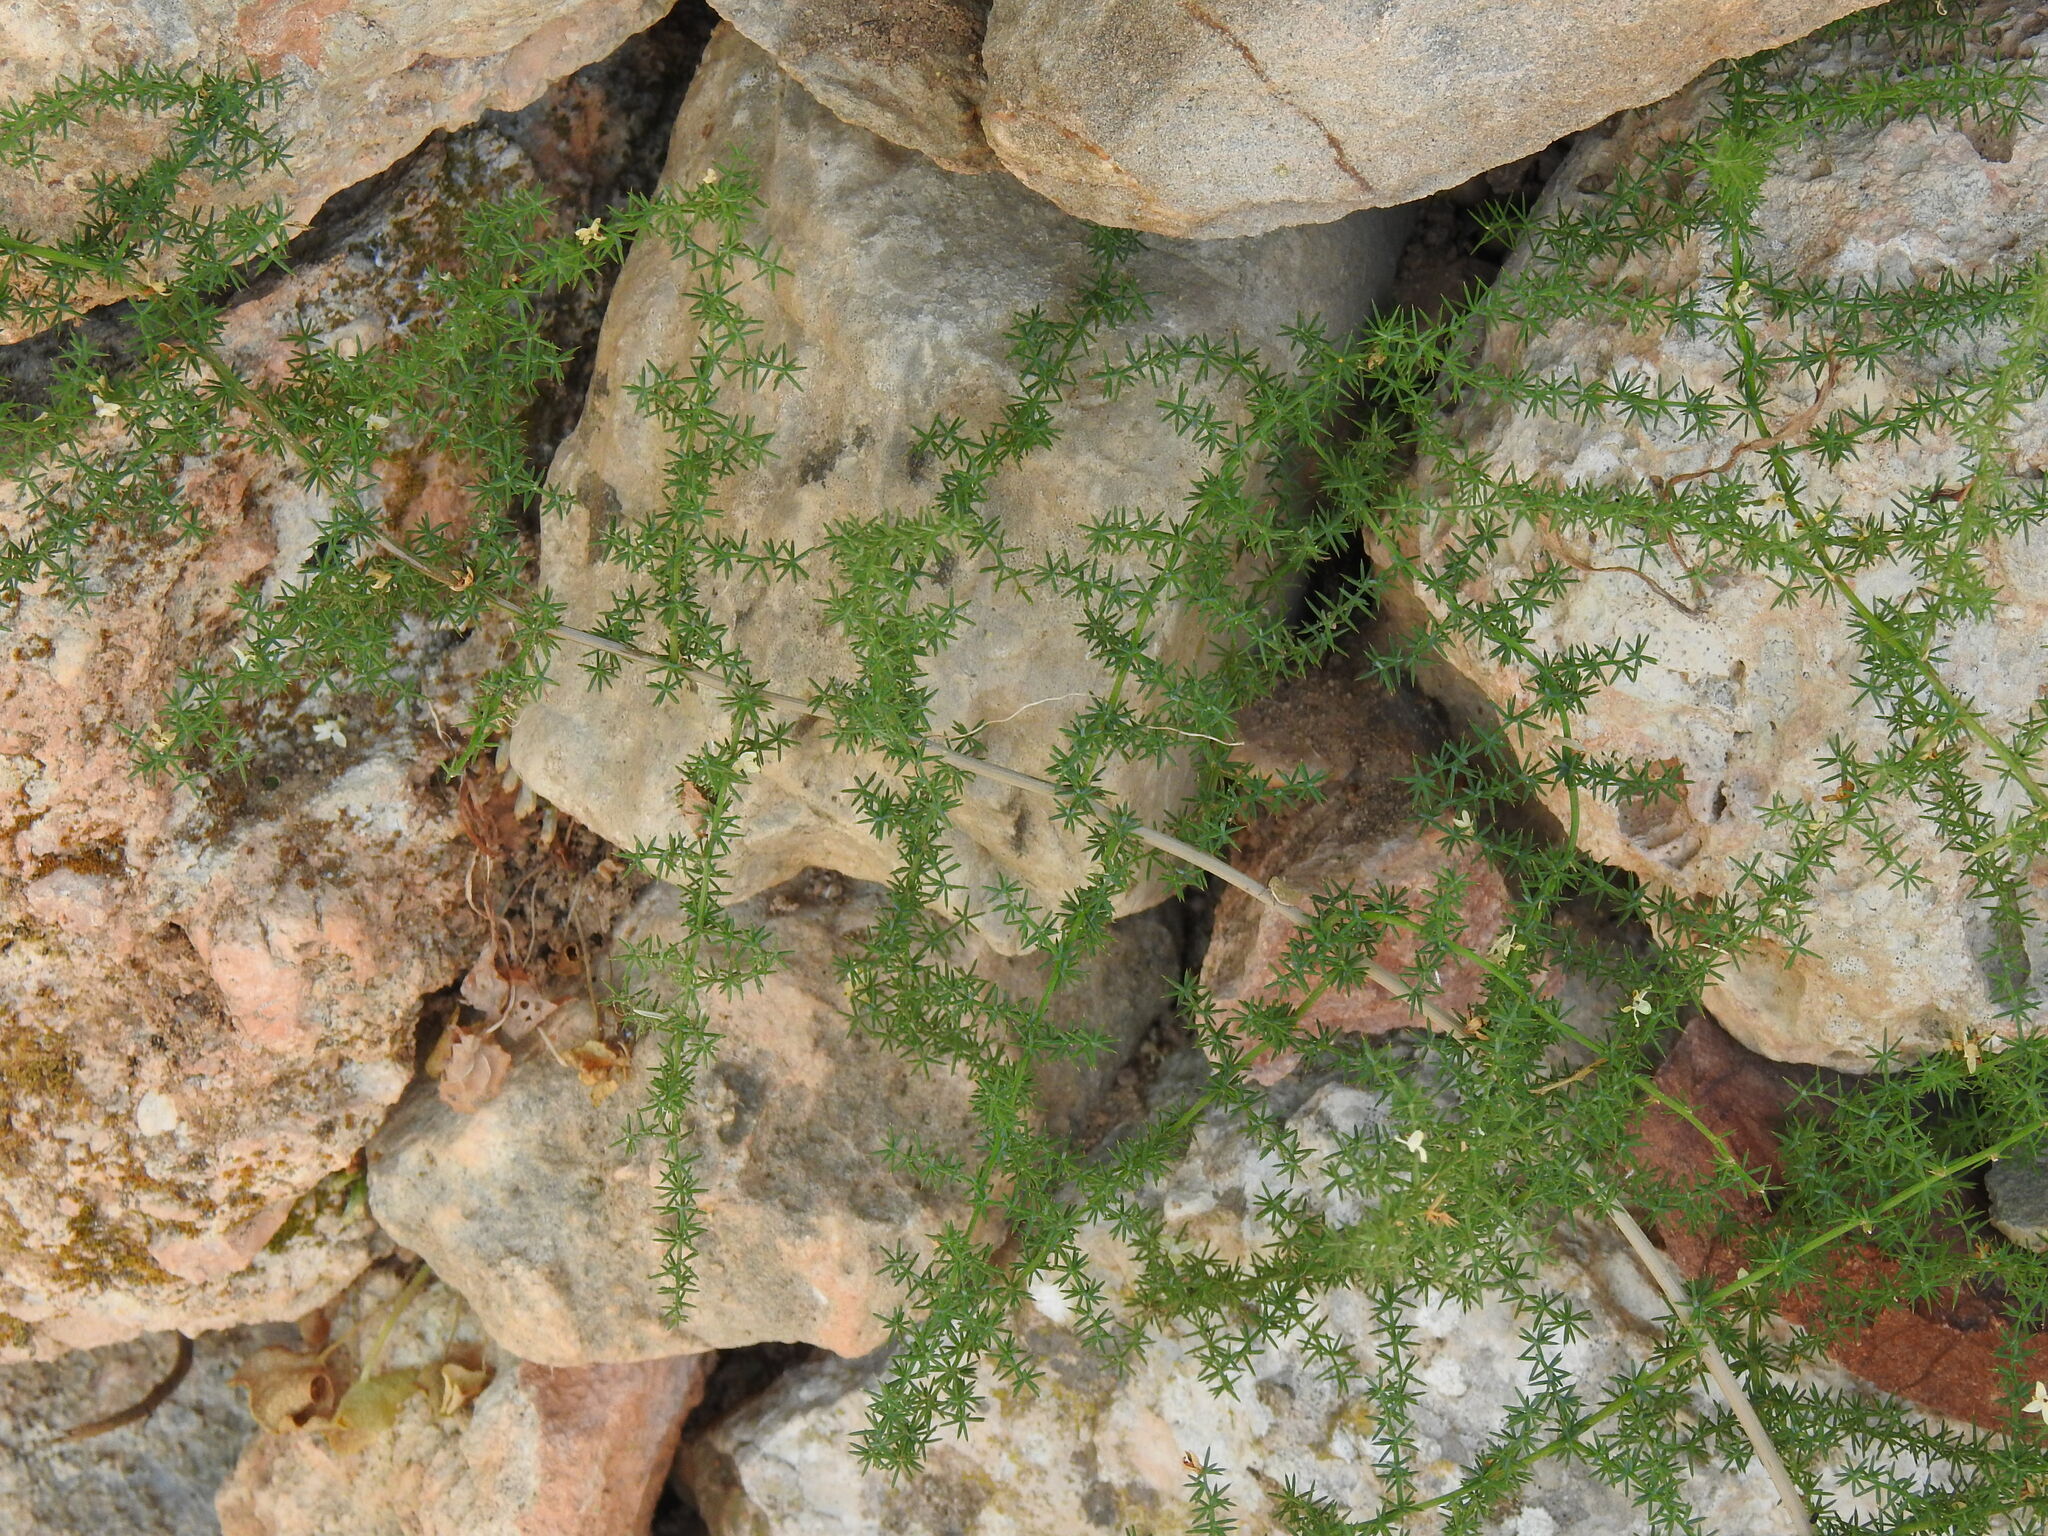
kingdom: Plantae
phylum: Tracheophyta
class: Liliopsida
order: Asparagales
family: Asparagaceae
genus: Asparagus
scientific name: Asparagus acutifolius
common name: Wild asparagus
